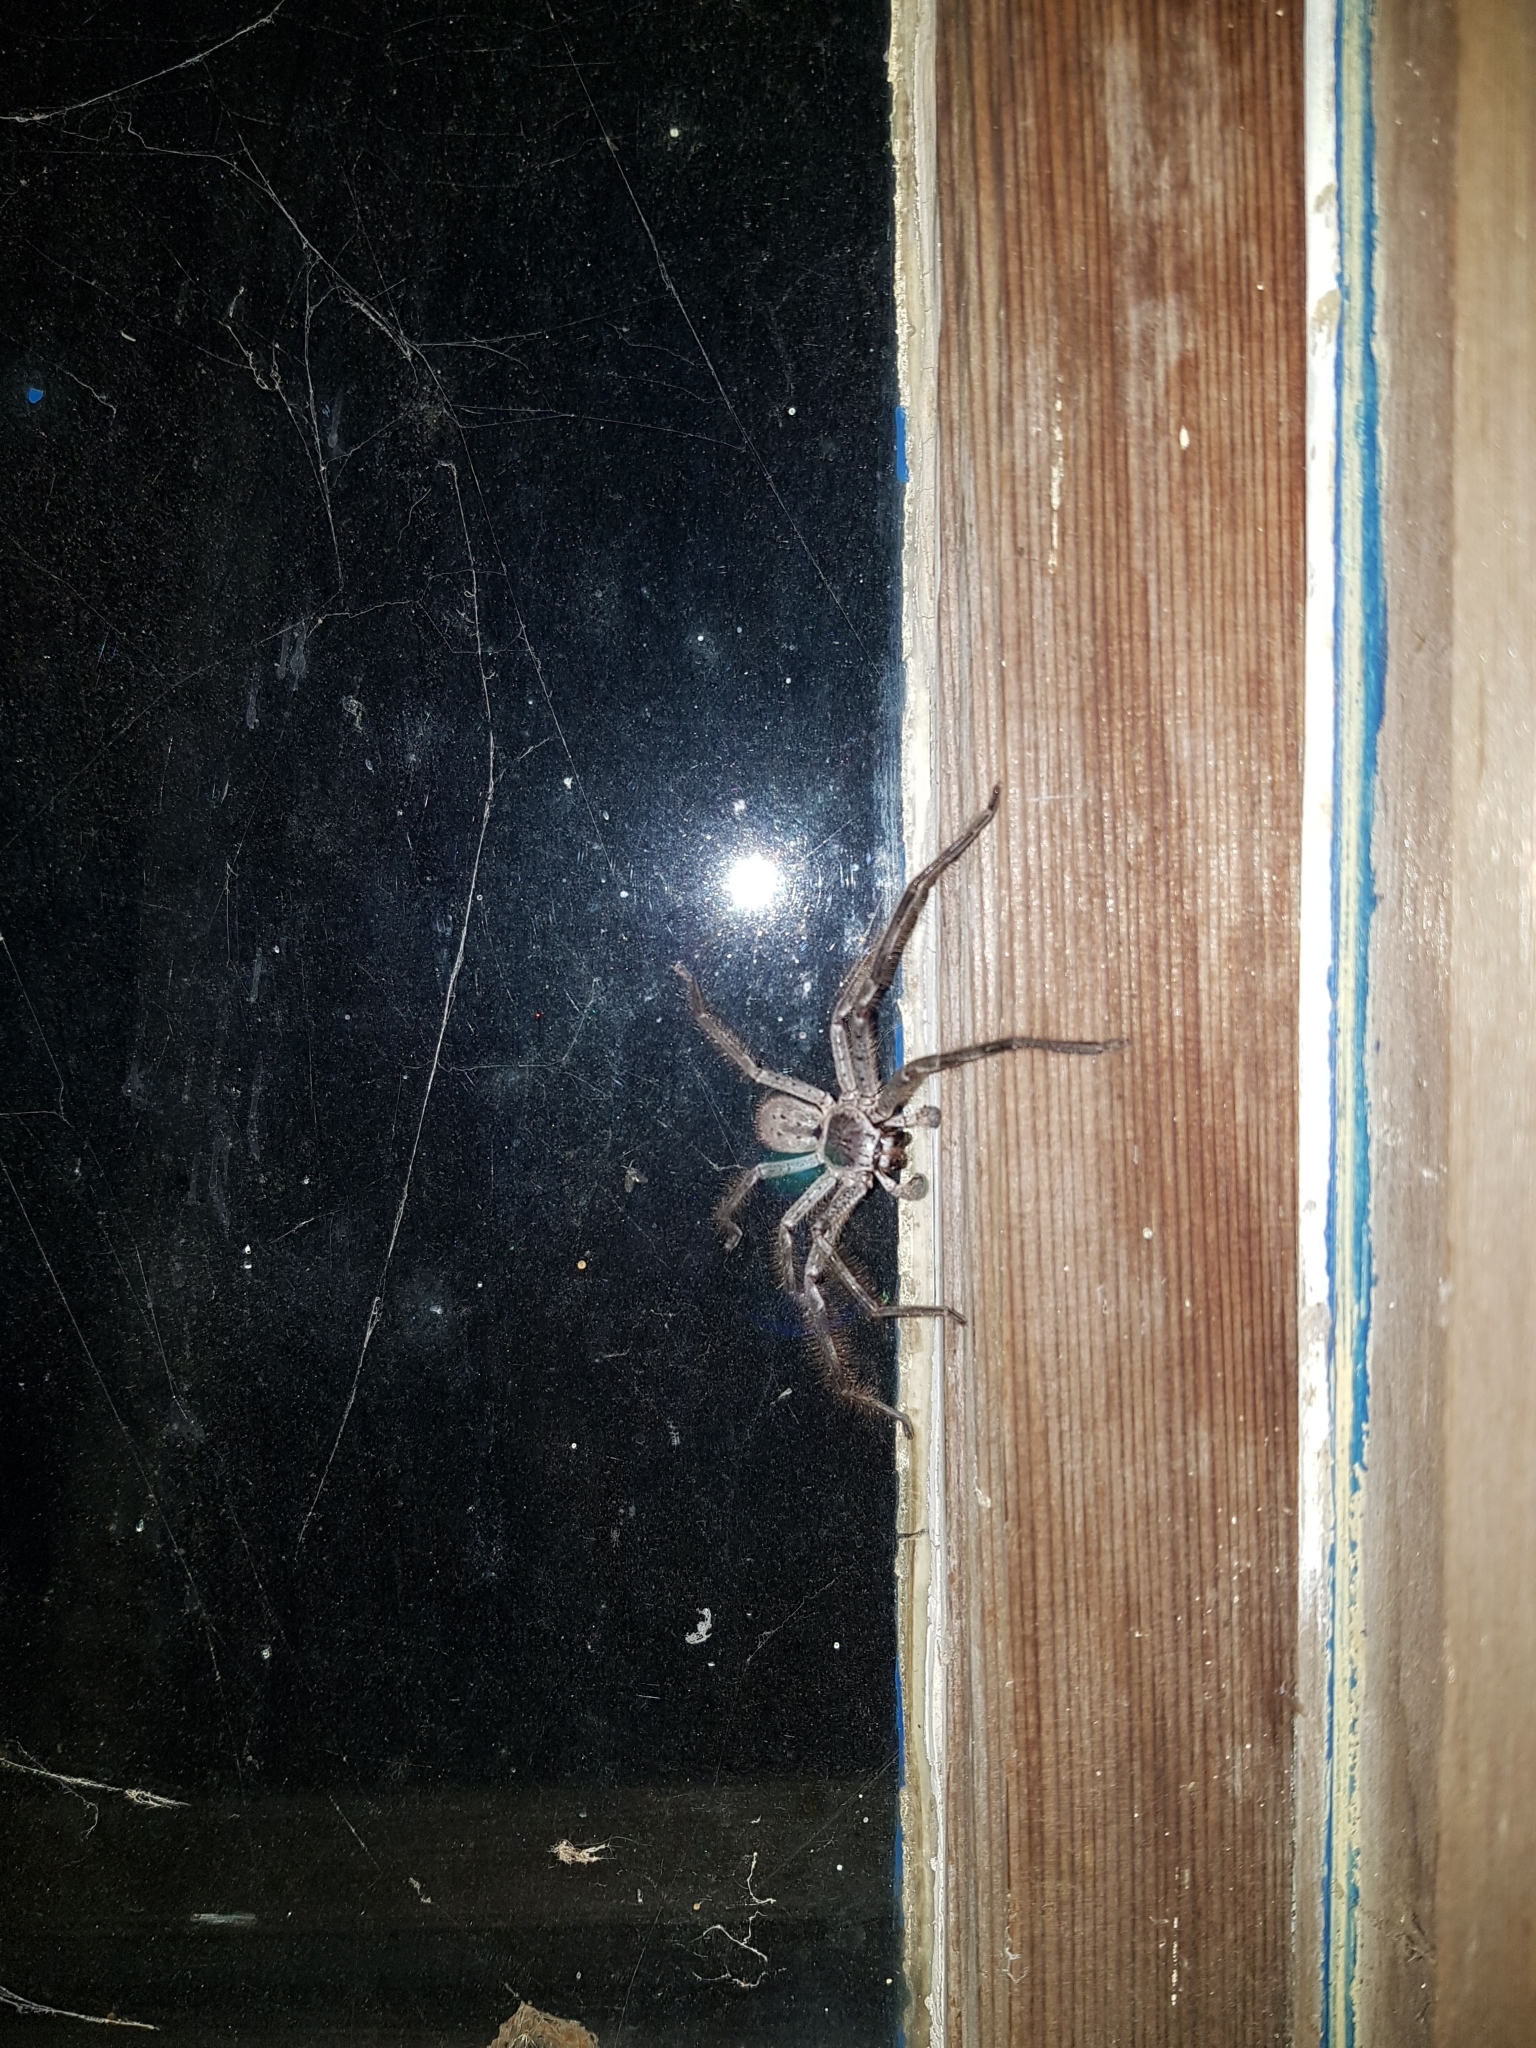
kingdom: Animalia
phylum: Arthropoda
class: Arachnida
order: Araneae
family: Sparassidae
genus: Isopeda
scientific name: Isopeda montana
